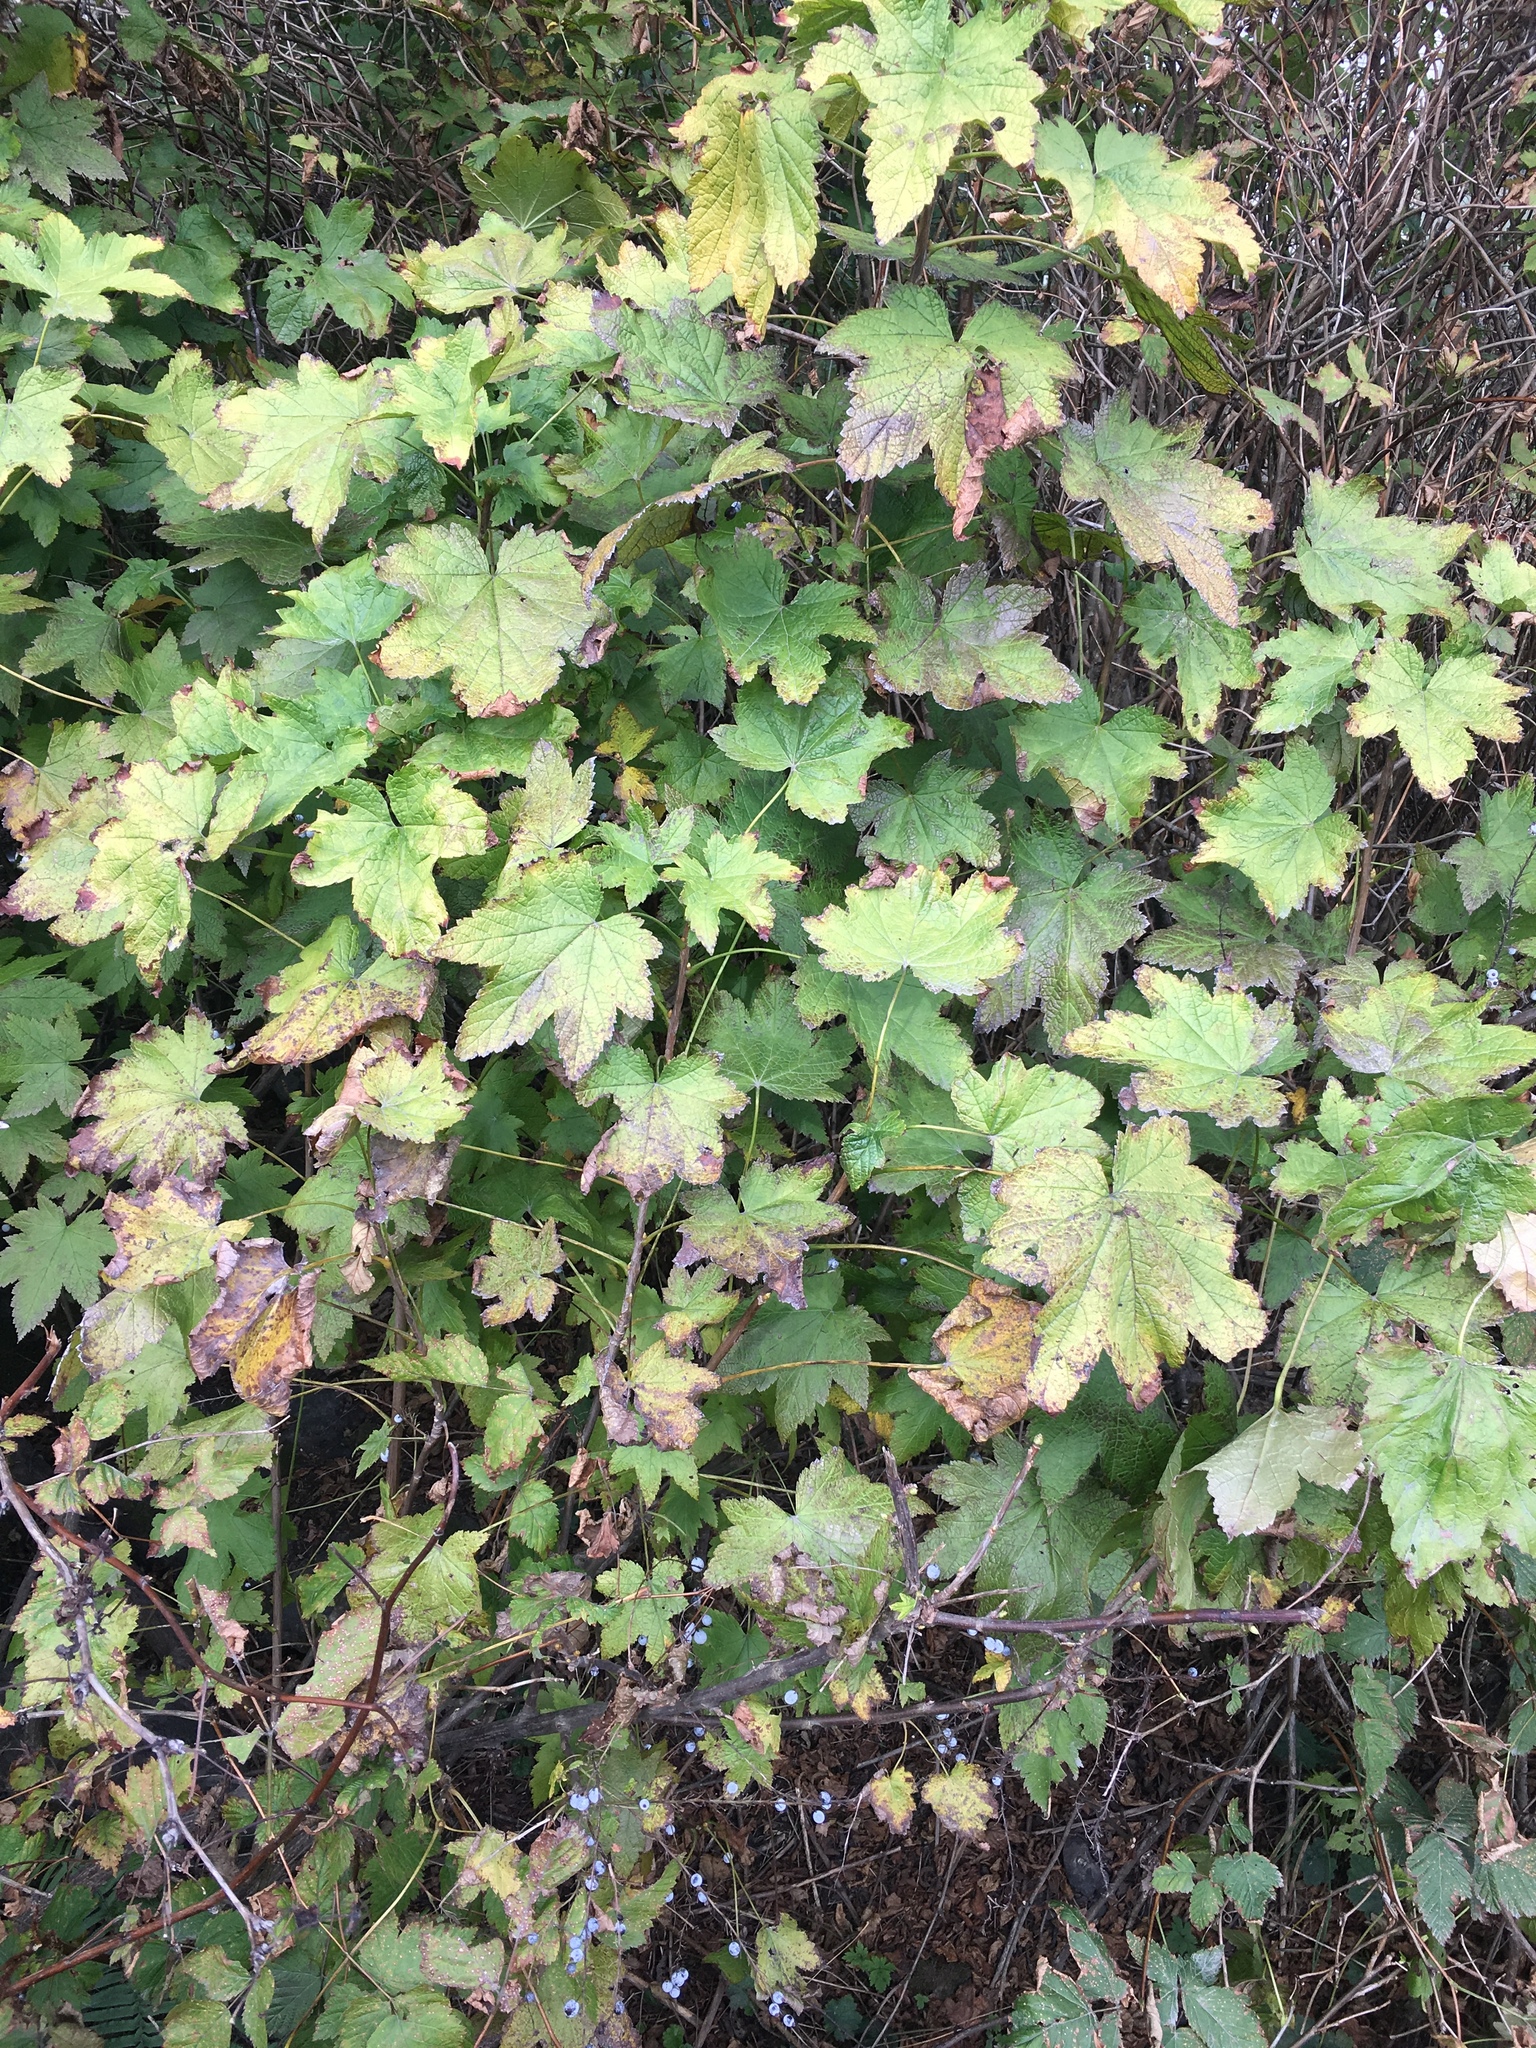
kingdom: Plantae
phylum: Tracheophyta
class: Magnoliopsida
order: Saxifragales
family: Grossulariaceae
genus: Ribes
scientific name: Ribes bracteosum
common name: California black currant
